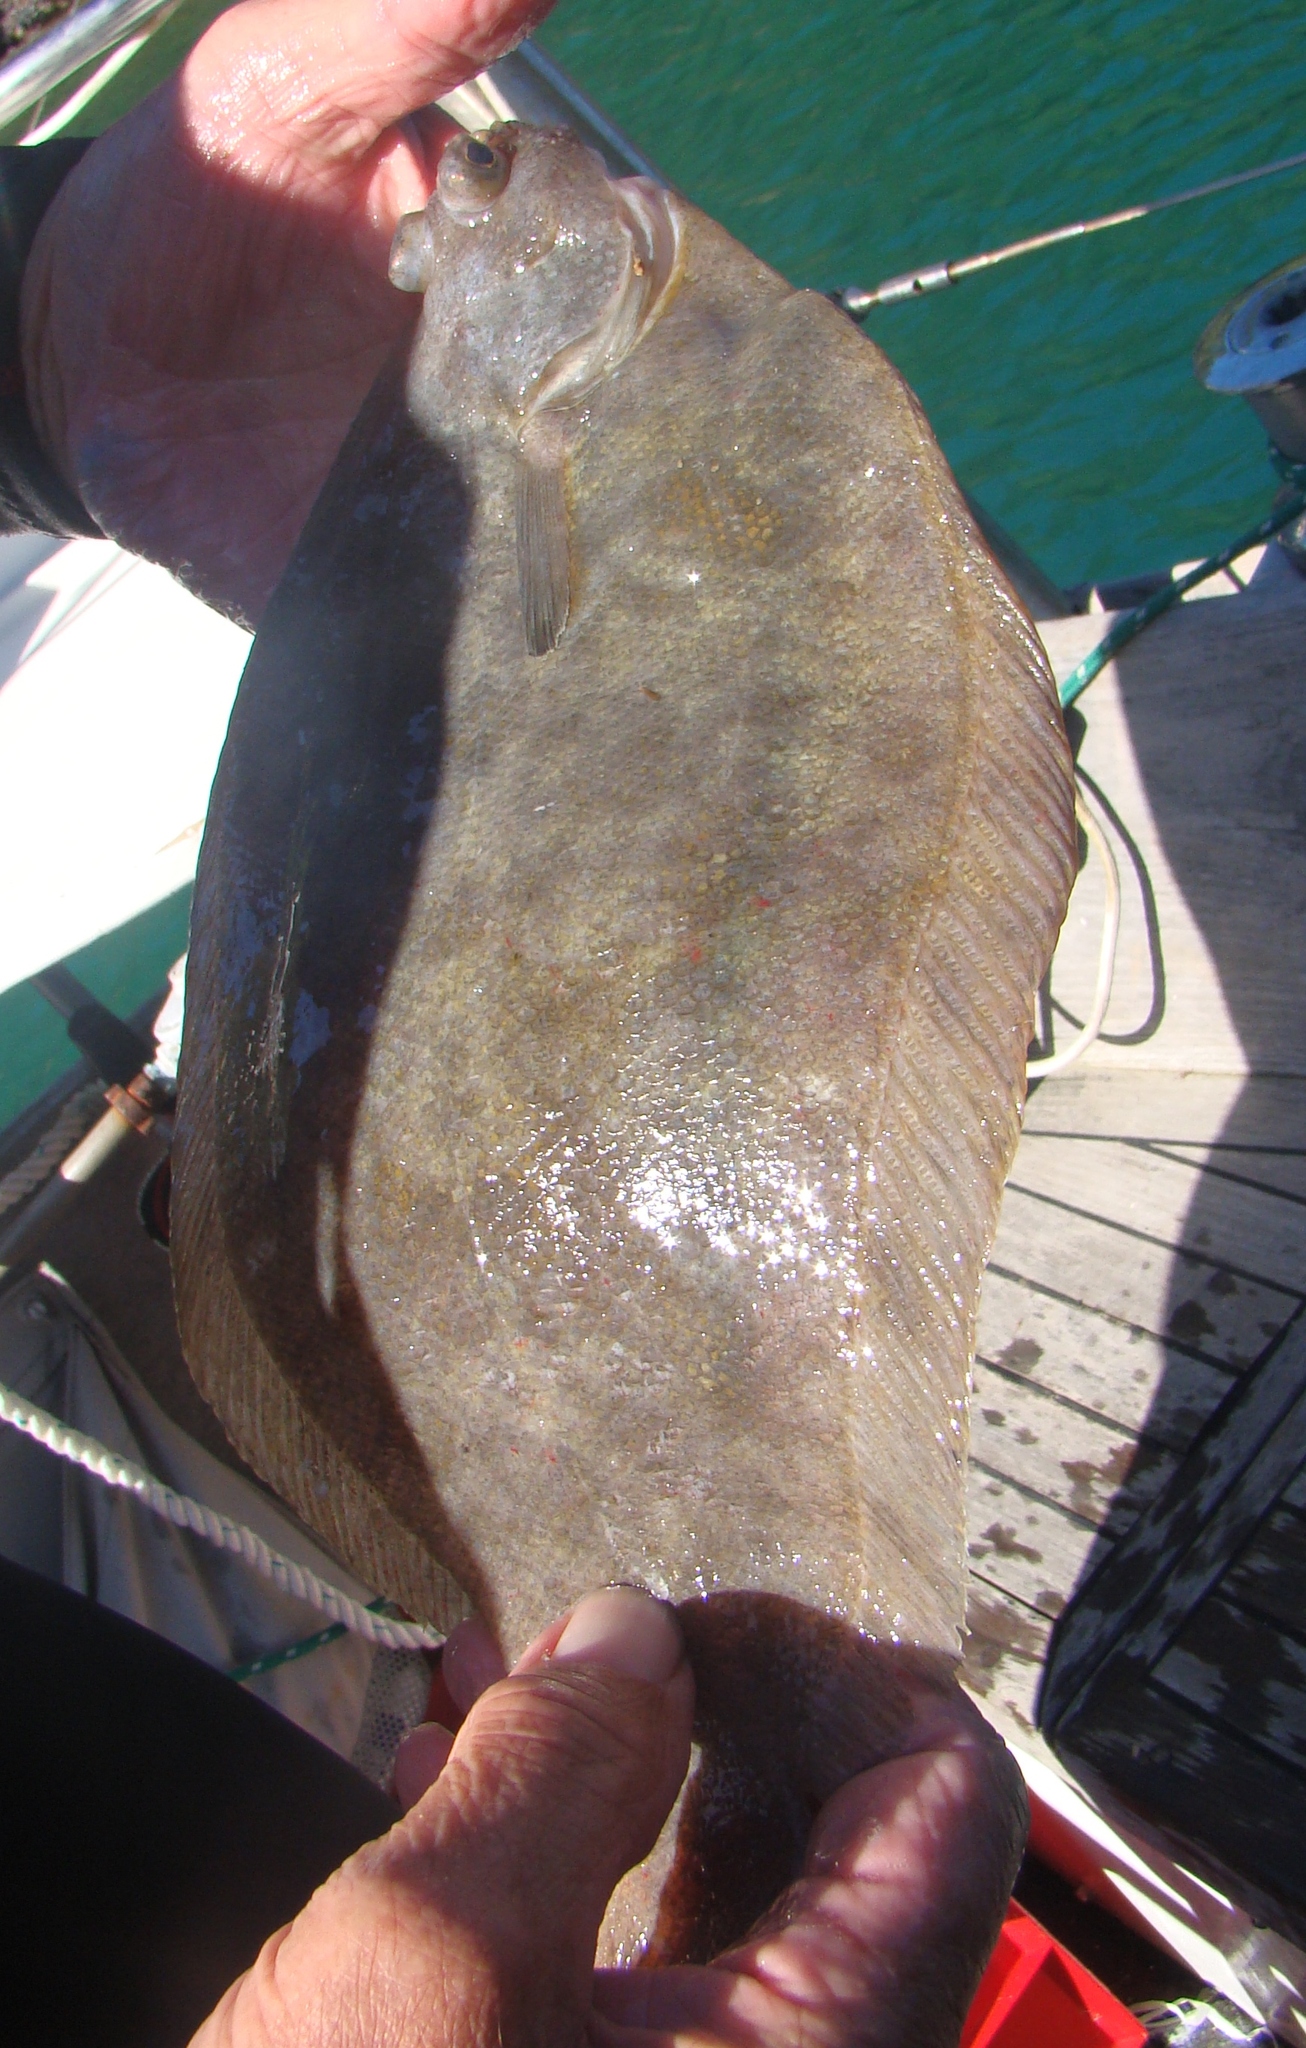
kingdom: Animalia
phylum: Chordata
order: Pleuronectiformes
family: Pleuronectidae
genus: Pelotretis
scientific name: Pelotretis flavilatus
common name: Lemon sole
